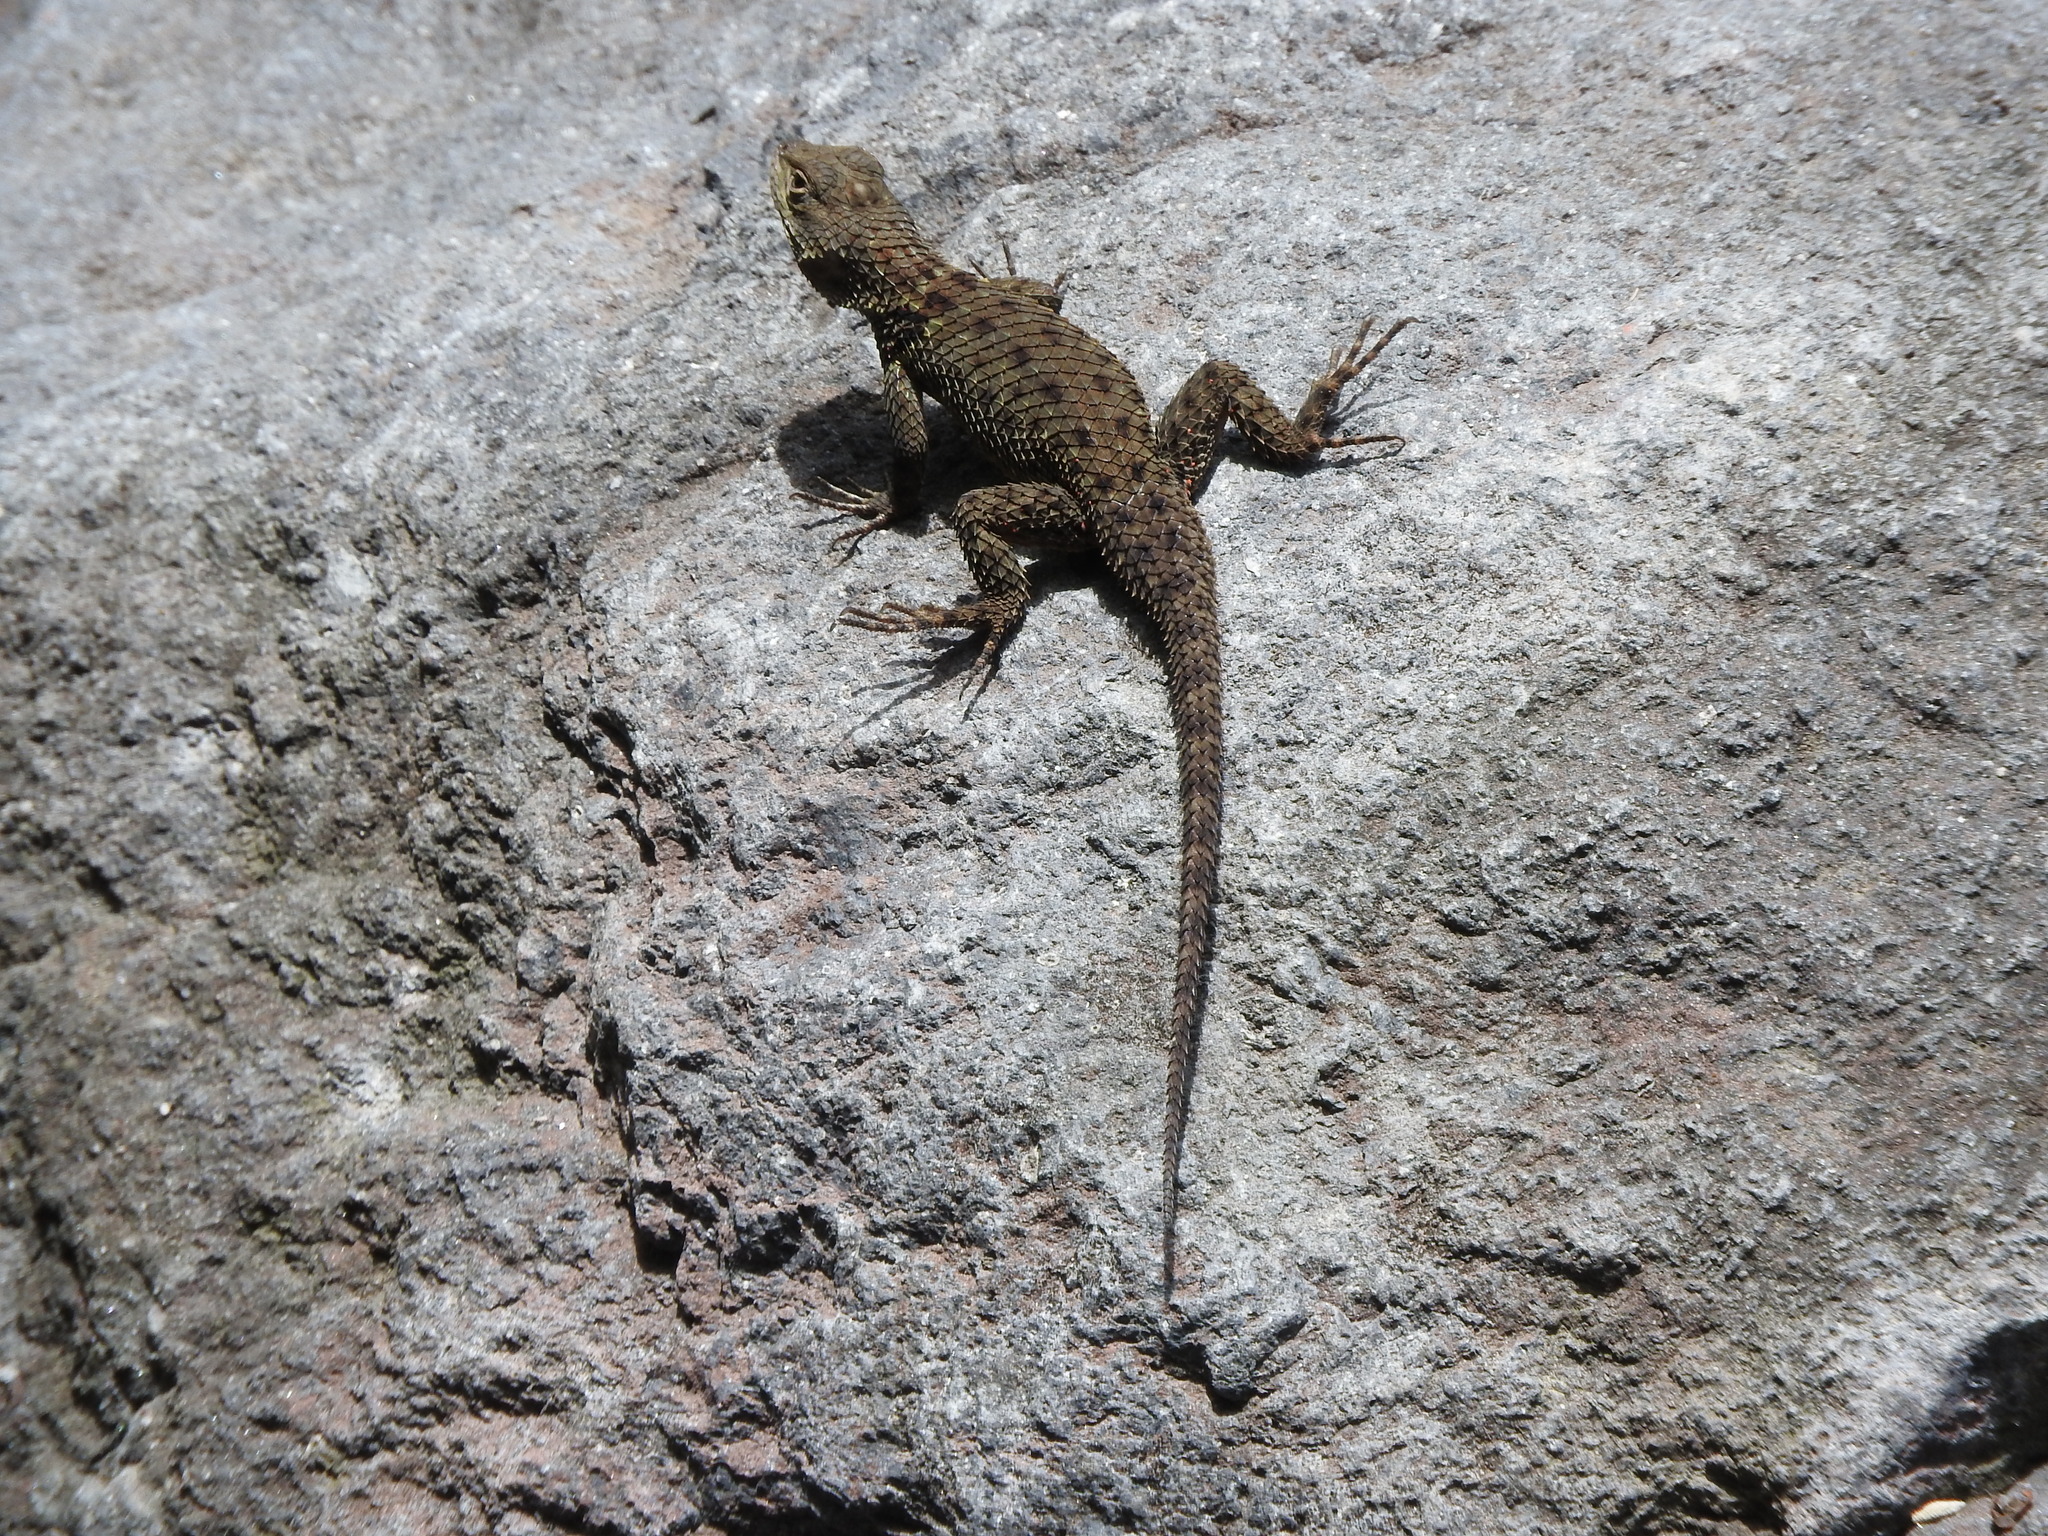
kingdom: Animalia
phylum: Chordata
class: Squamata
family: Phrynosomatidae
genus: Sceloporus
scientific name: Sceloporus torquatus
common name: Central plateau torquate lizard [melanogaster]
